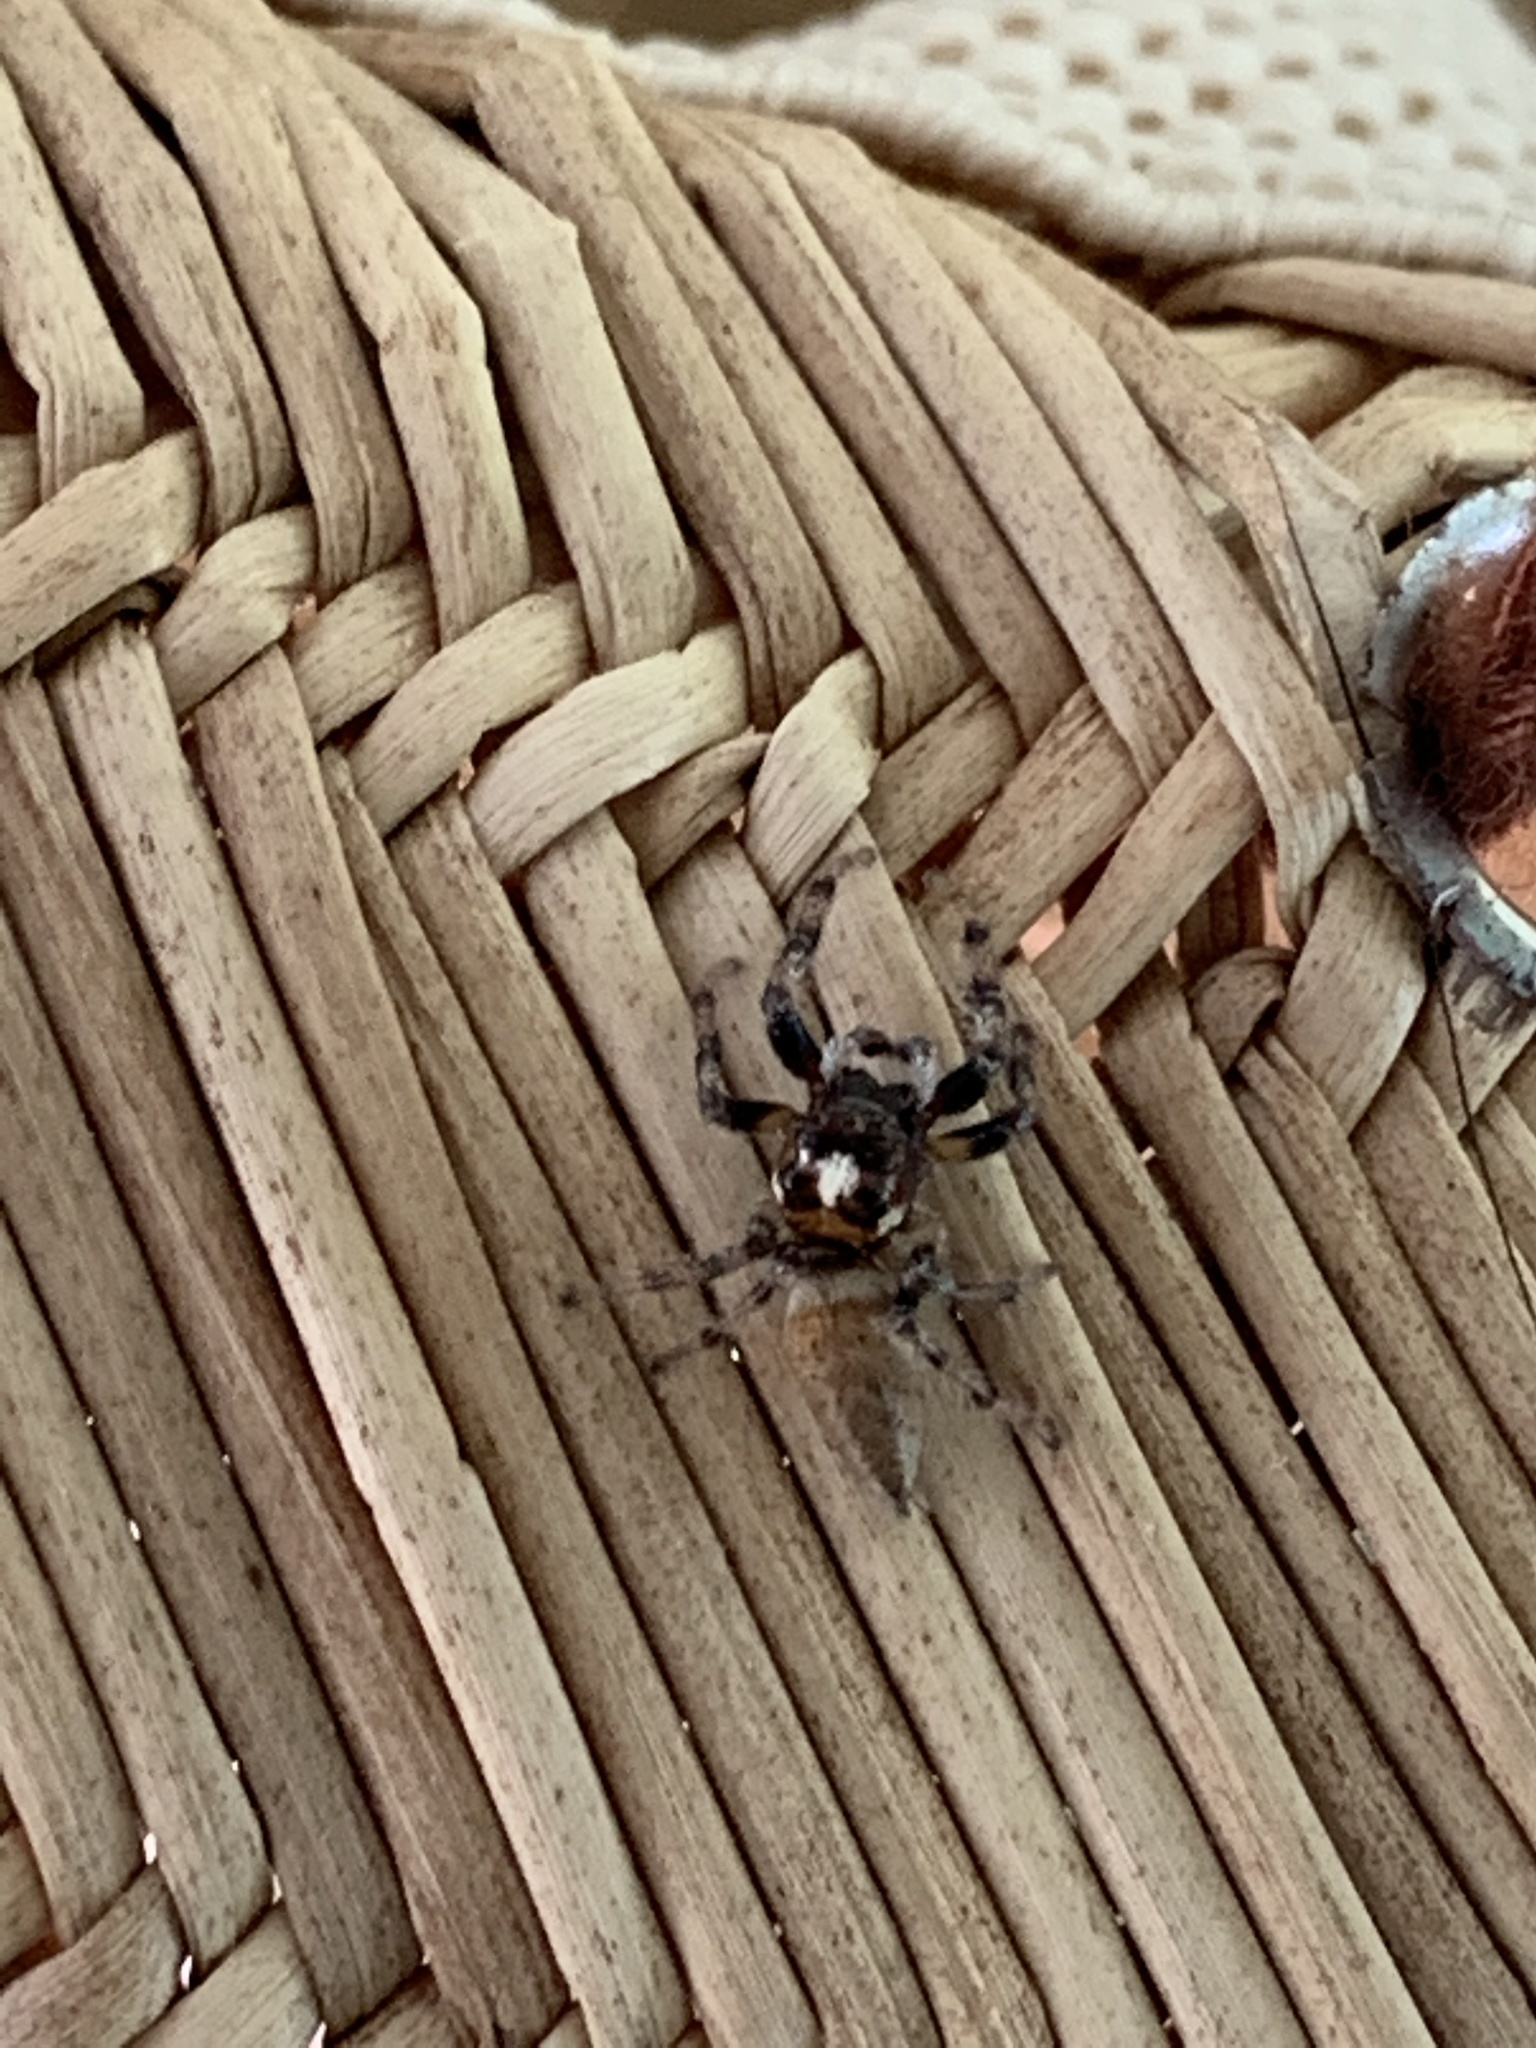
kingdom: Animalia
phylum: Arthropoda
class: Arachnida
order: Araneae
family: Salticidae
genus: Colonus
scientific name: Colonus hesperus
